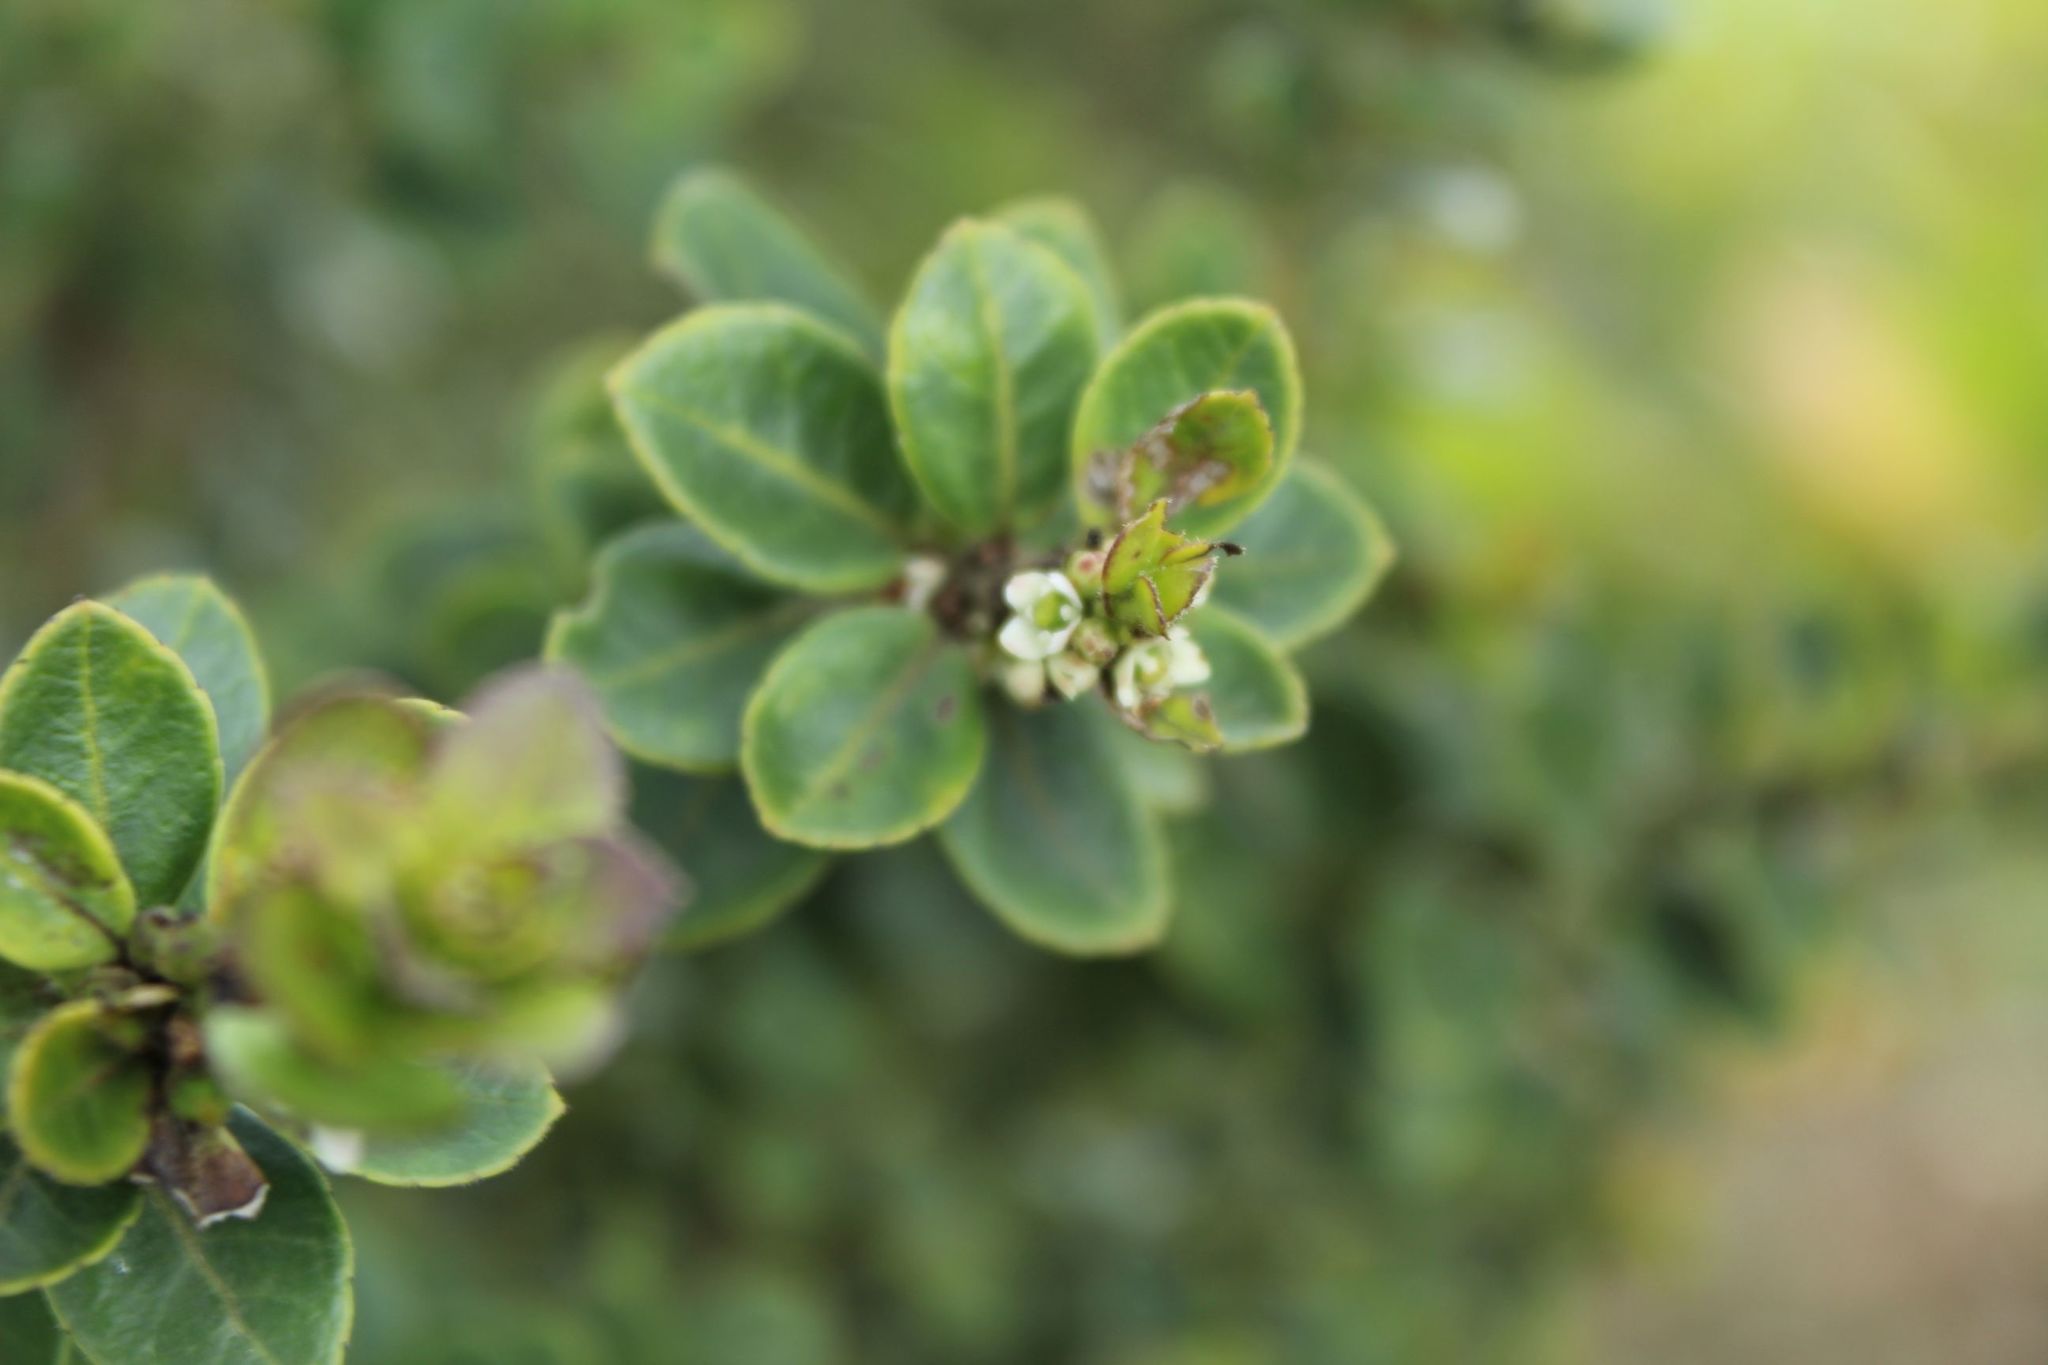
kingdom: Plantae
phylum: Tracheophyta
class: Magnoliopsida
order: Aquifoliales
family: Aquifoliaceae
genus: Ilex
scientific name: Ilex microphylla
